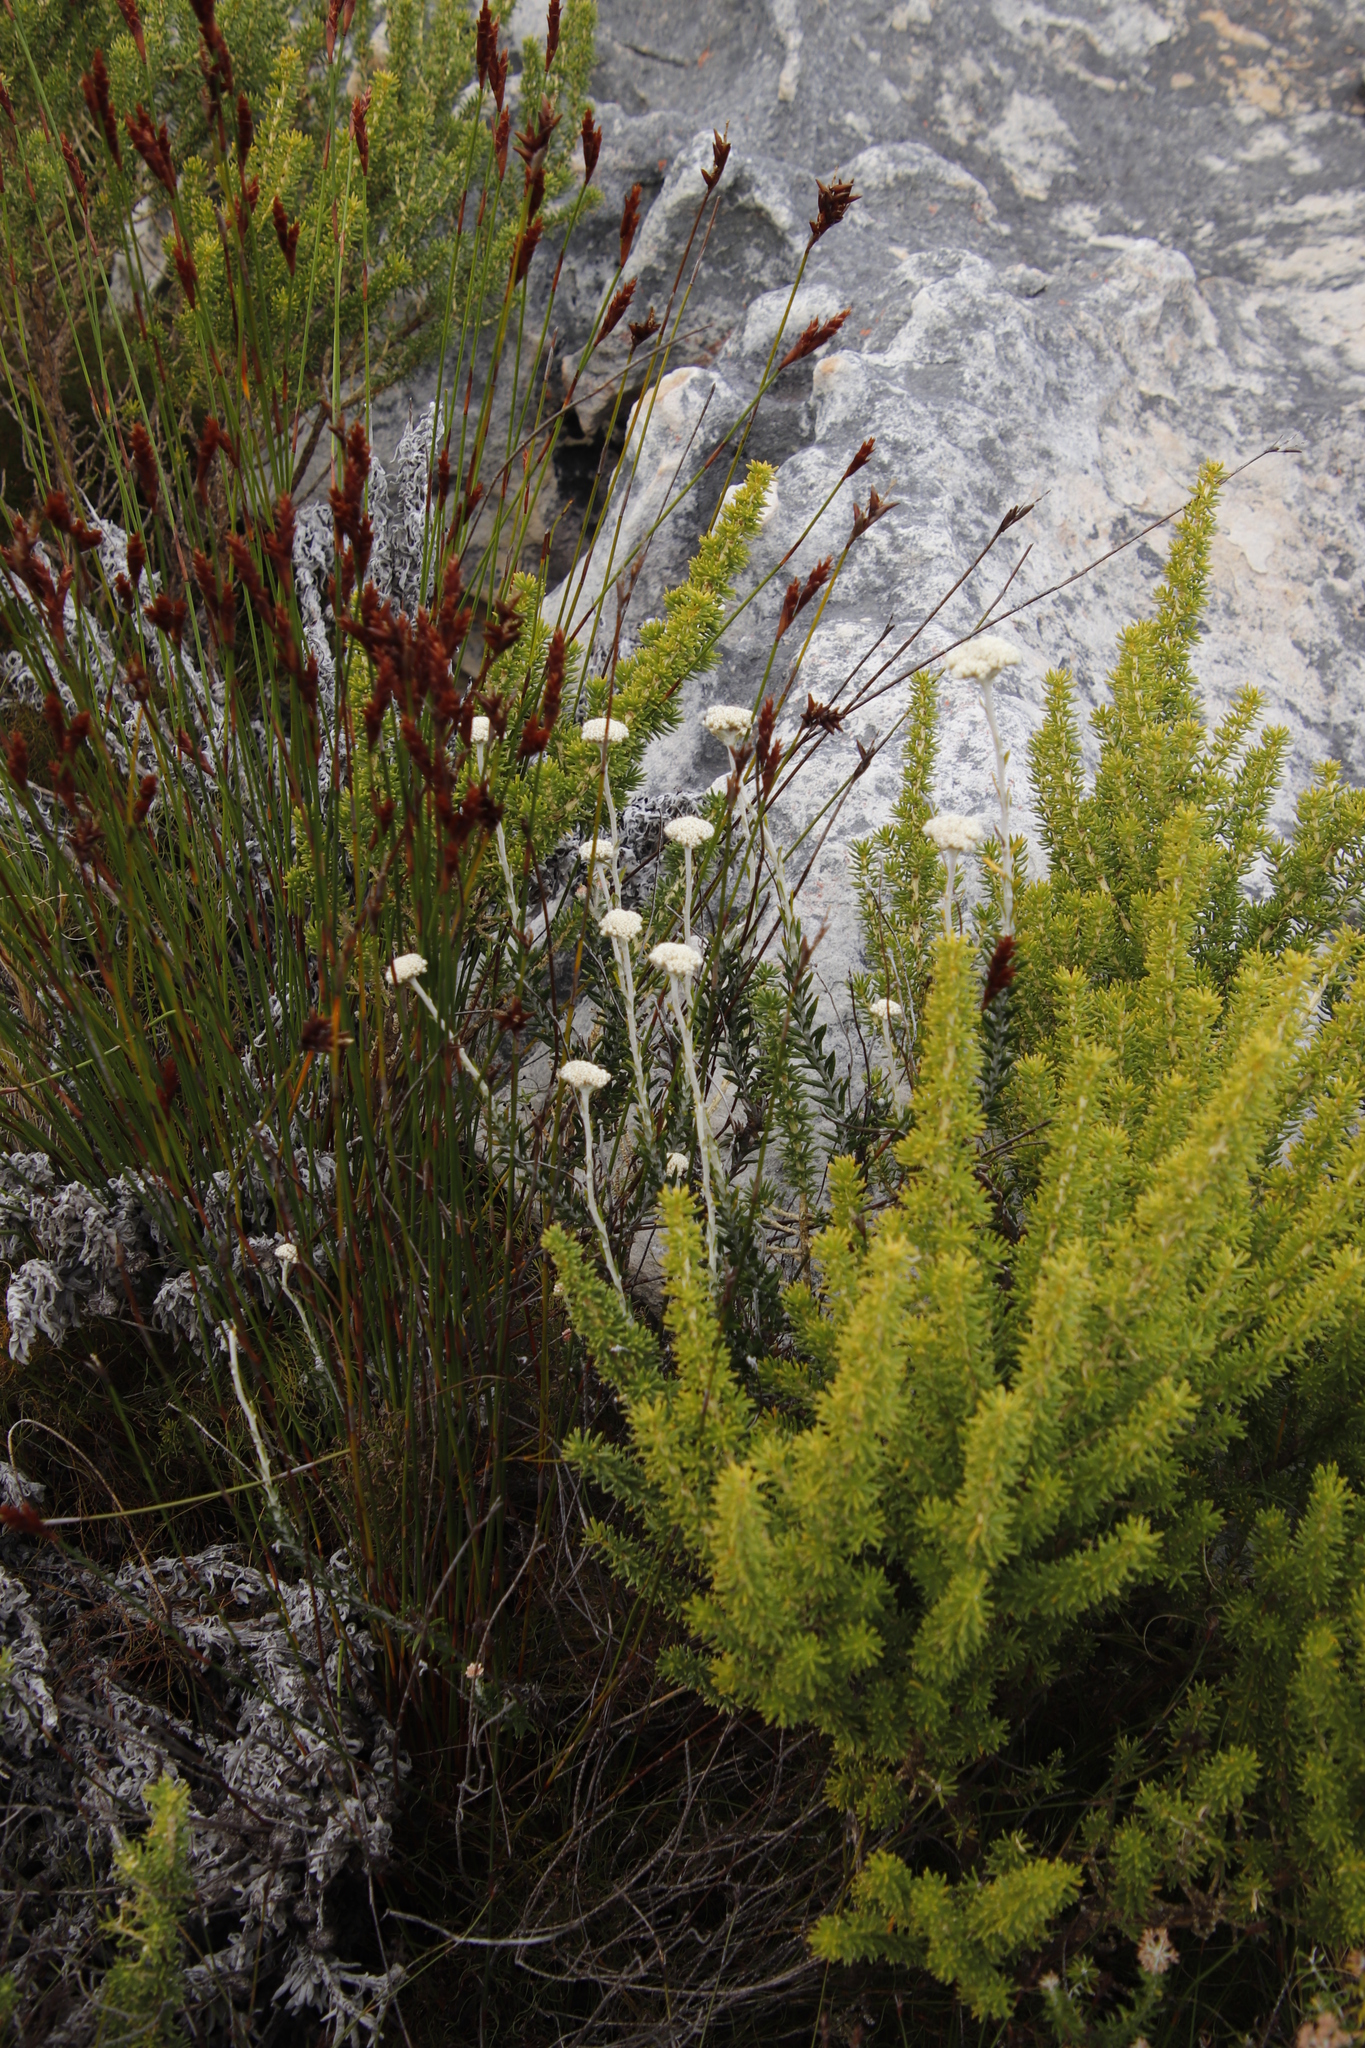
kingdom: Plantae
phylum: Tracheophyta
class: Magnoliopsida
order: Asterales
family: Asteraceae
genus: Anaxeton
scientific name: Anaxeton laeve
